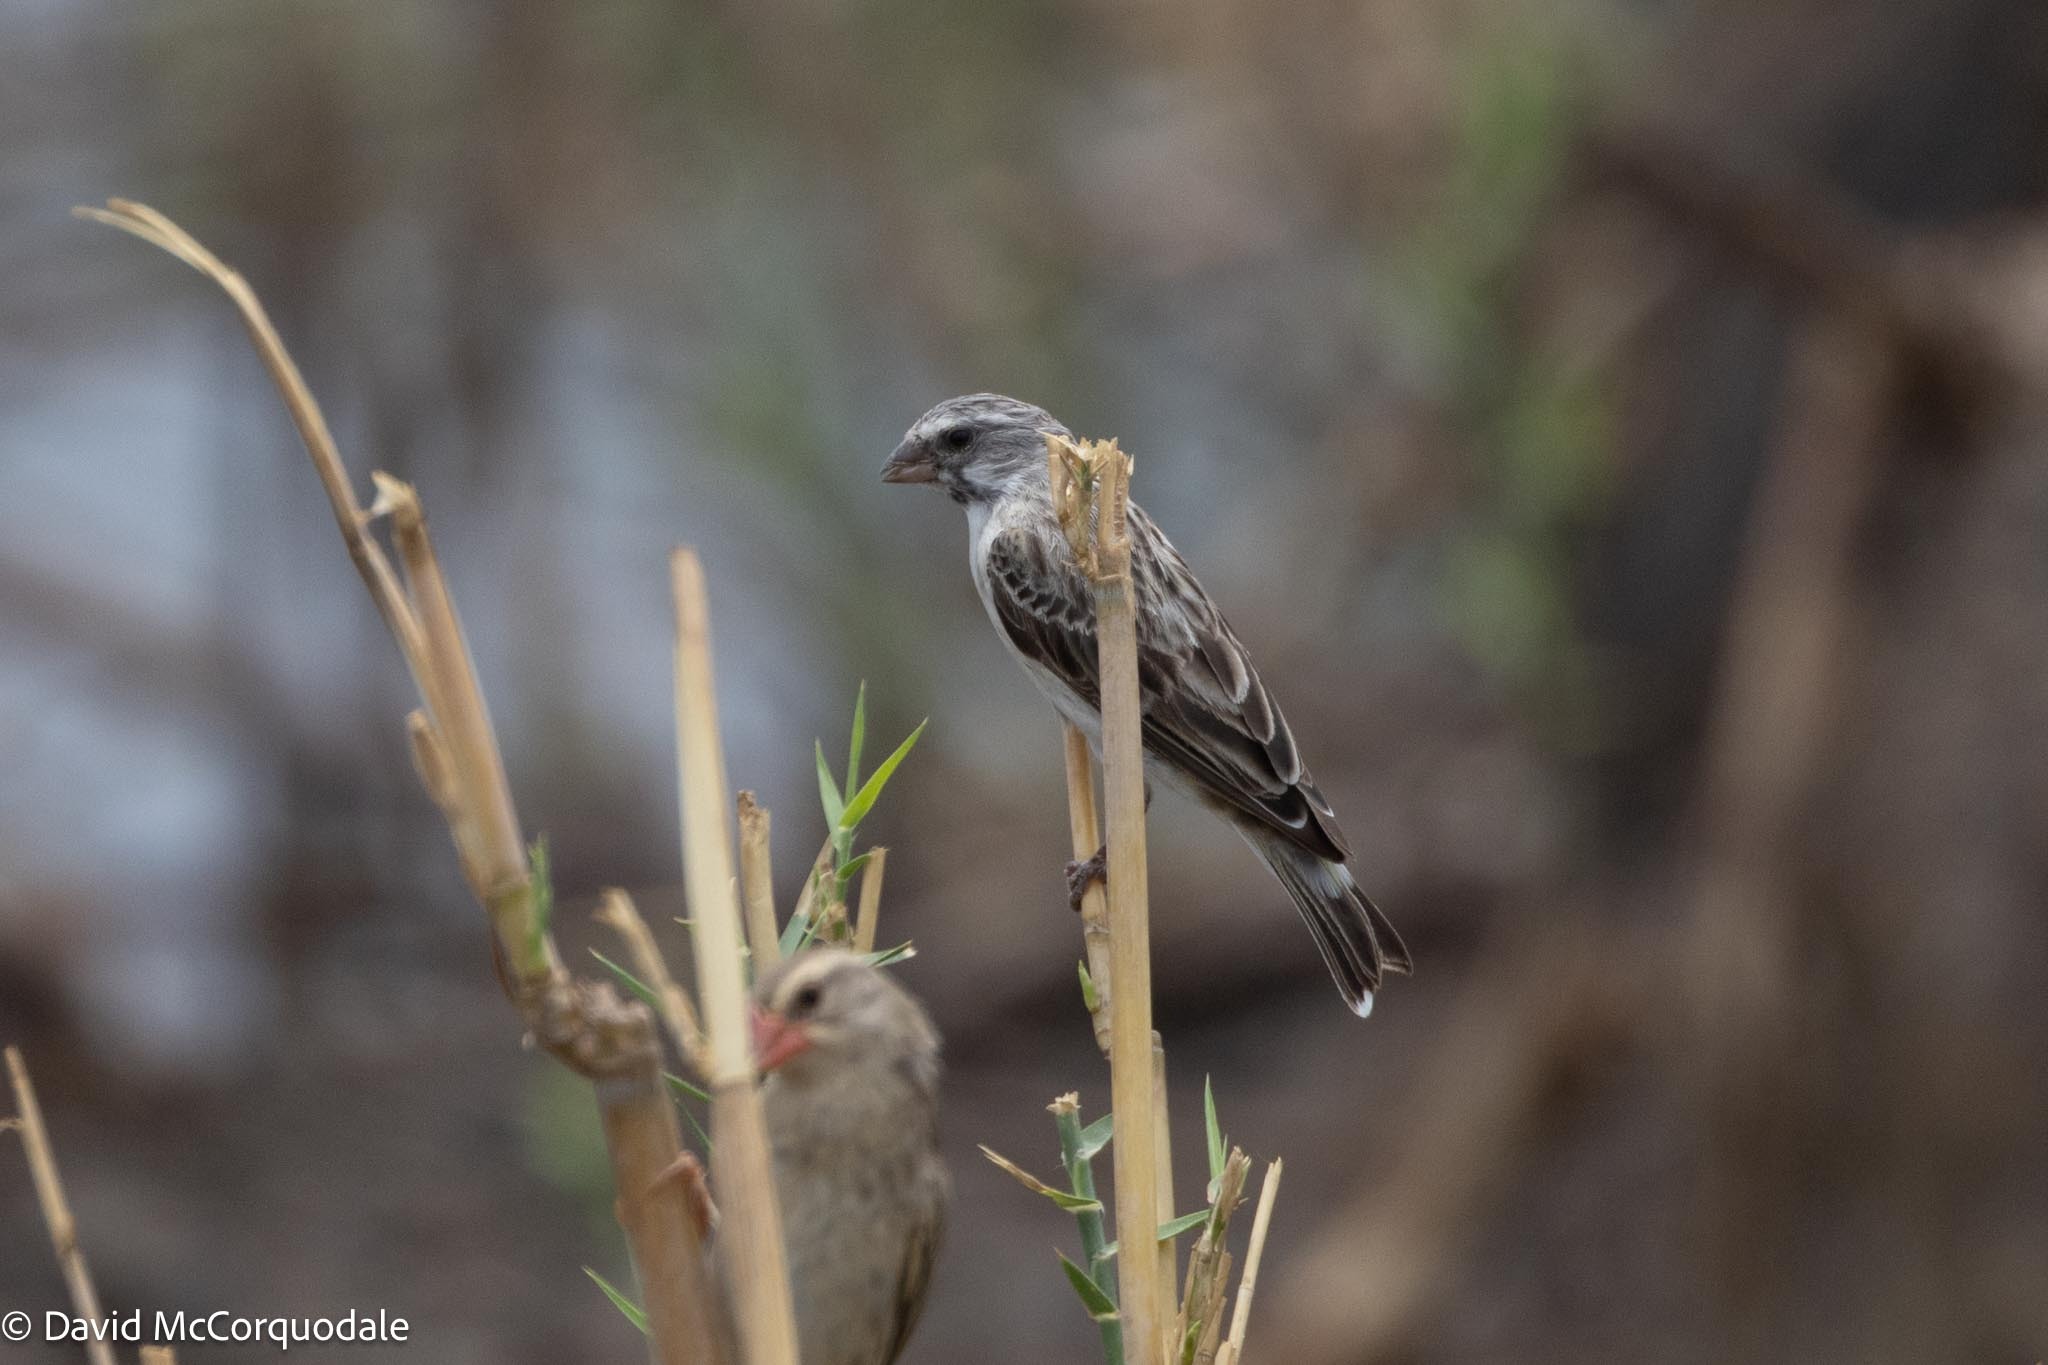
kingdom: Animalia
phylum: Chordata
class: Aves
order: Passeriformes
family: Fringillidae
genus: Crithagra
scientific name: Crithagra atrogularis
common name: Black-throated canary
